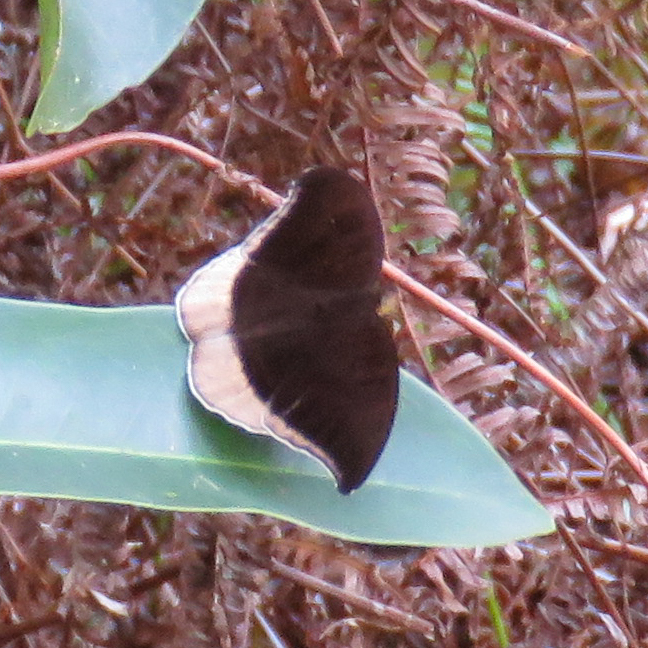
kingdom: Animalia
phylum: Arthropoda
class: Insecta
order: Lepidoptera
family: Nymphalidae
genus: Tanaecia
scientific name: Tanaecia lepidea
